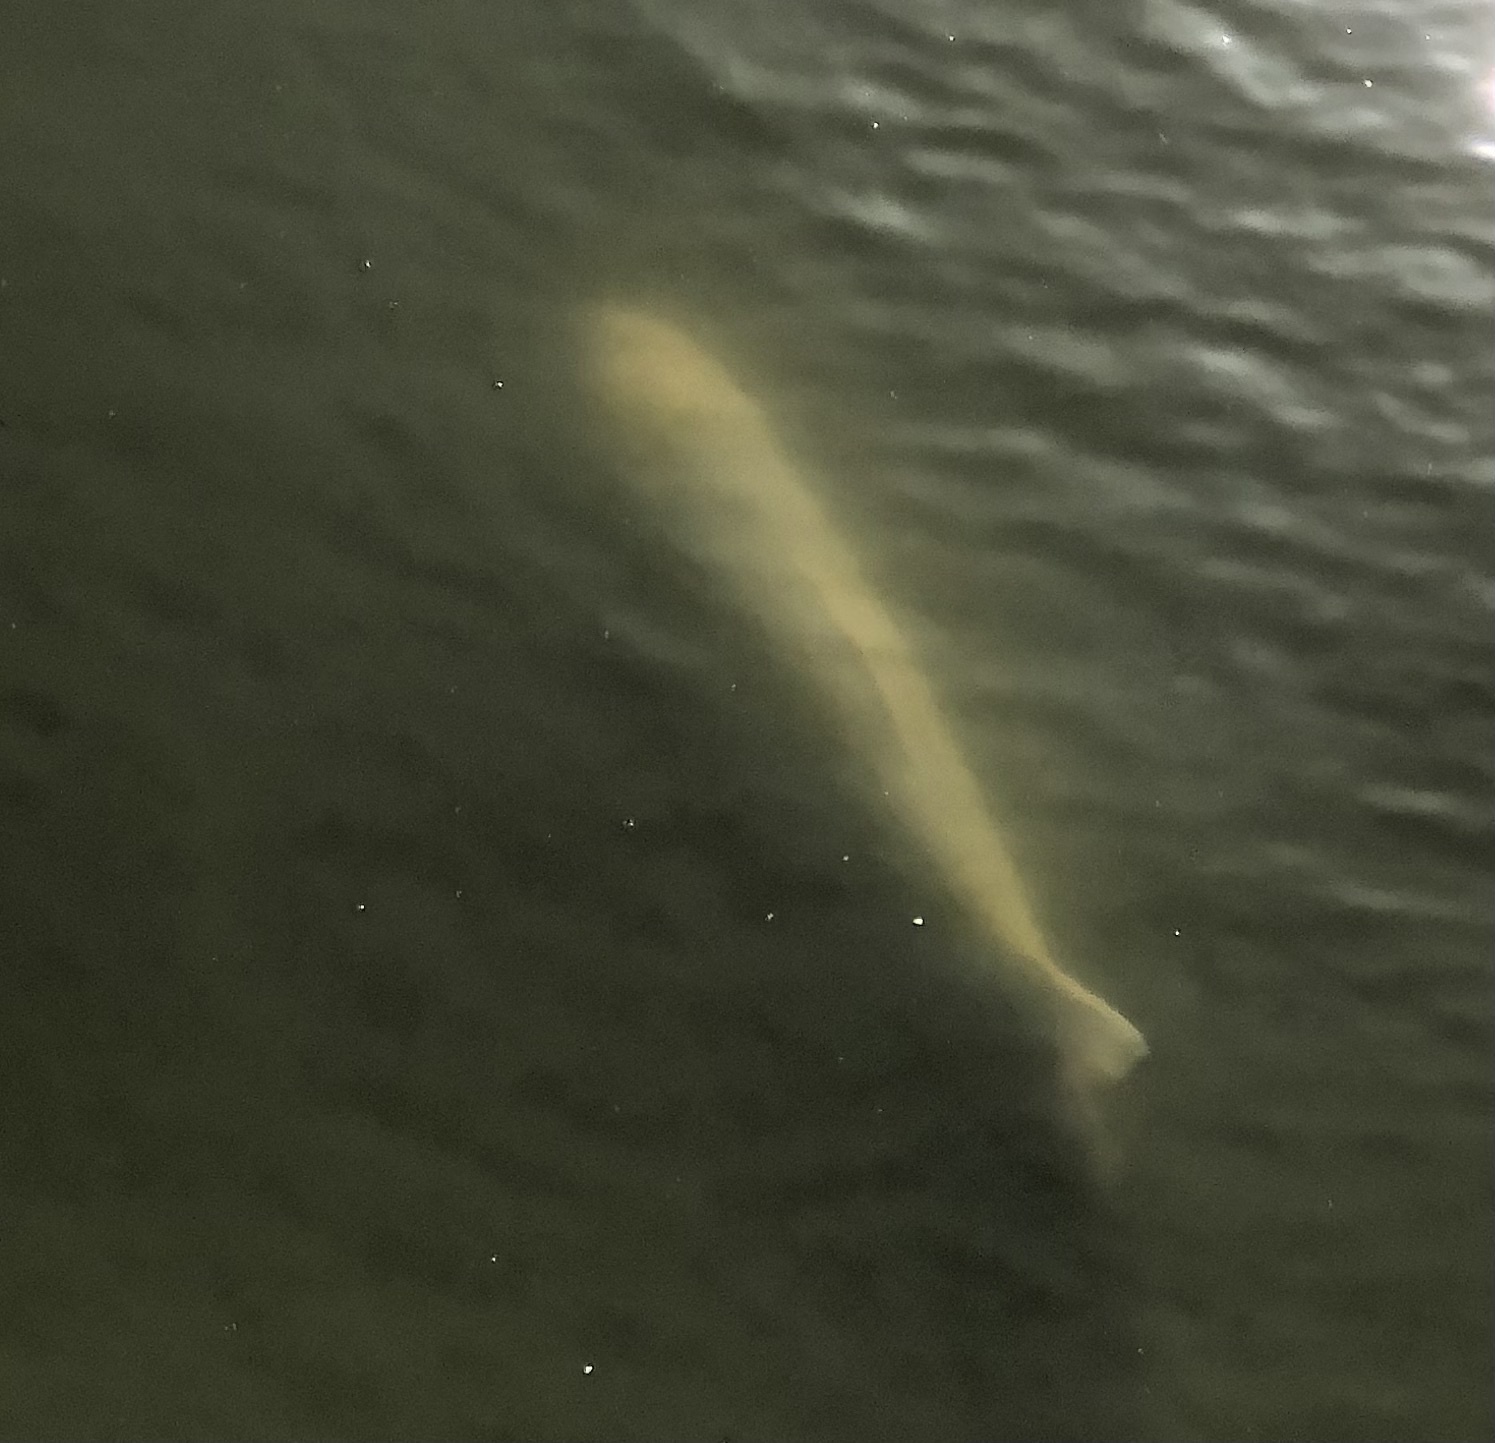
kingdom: Animalia
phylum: Chordata
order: Cypriniformes
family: Cyprinidae
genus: Cyprinus
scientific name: Cyprinus rubrofuscus
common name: Koi
